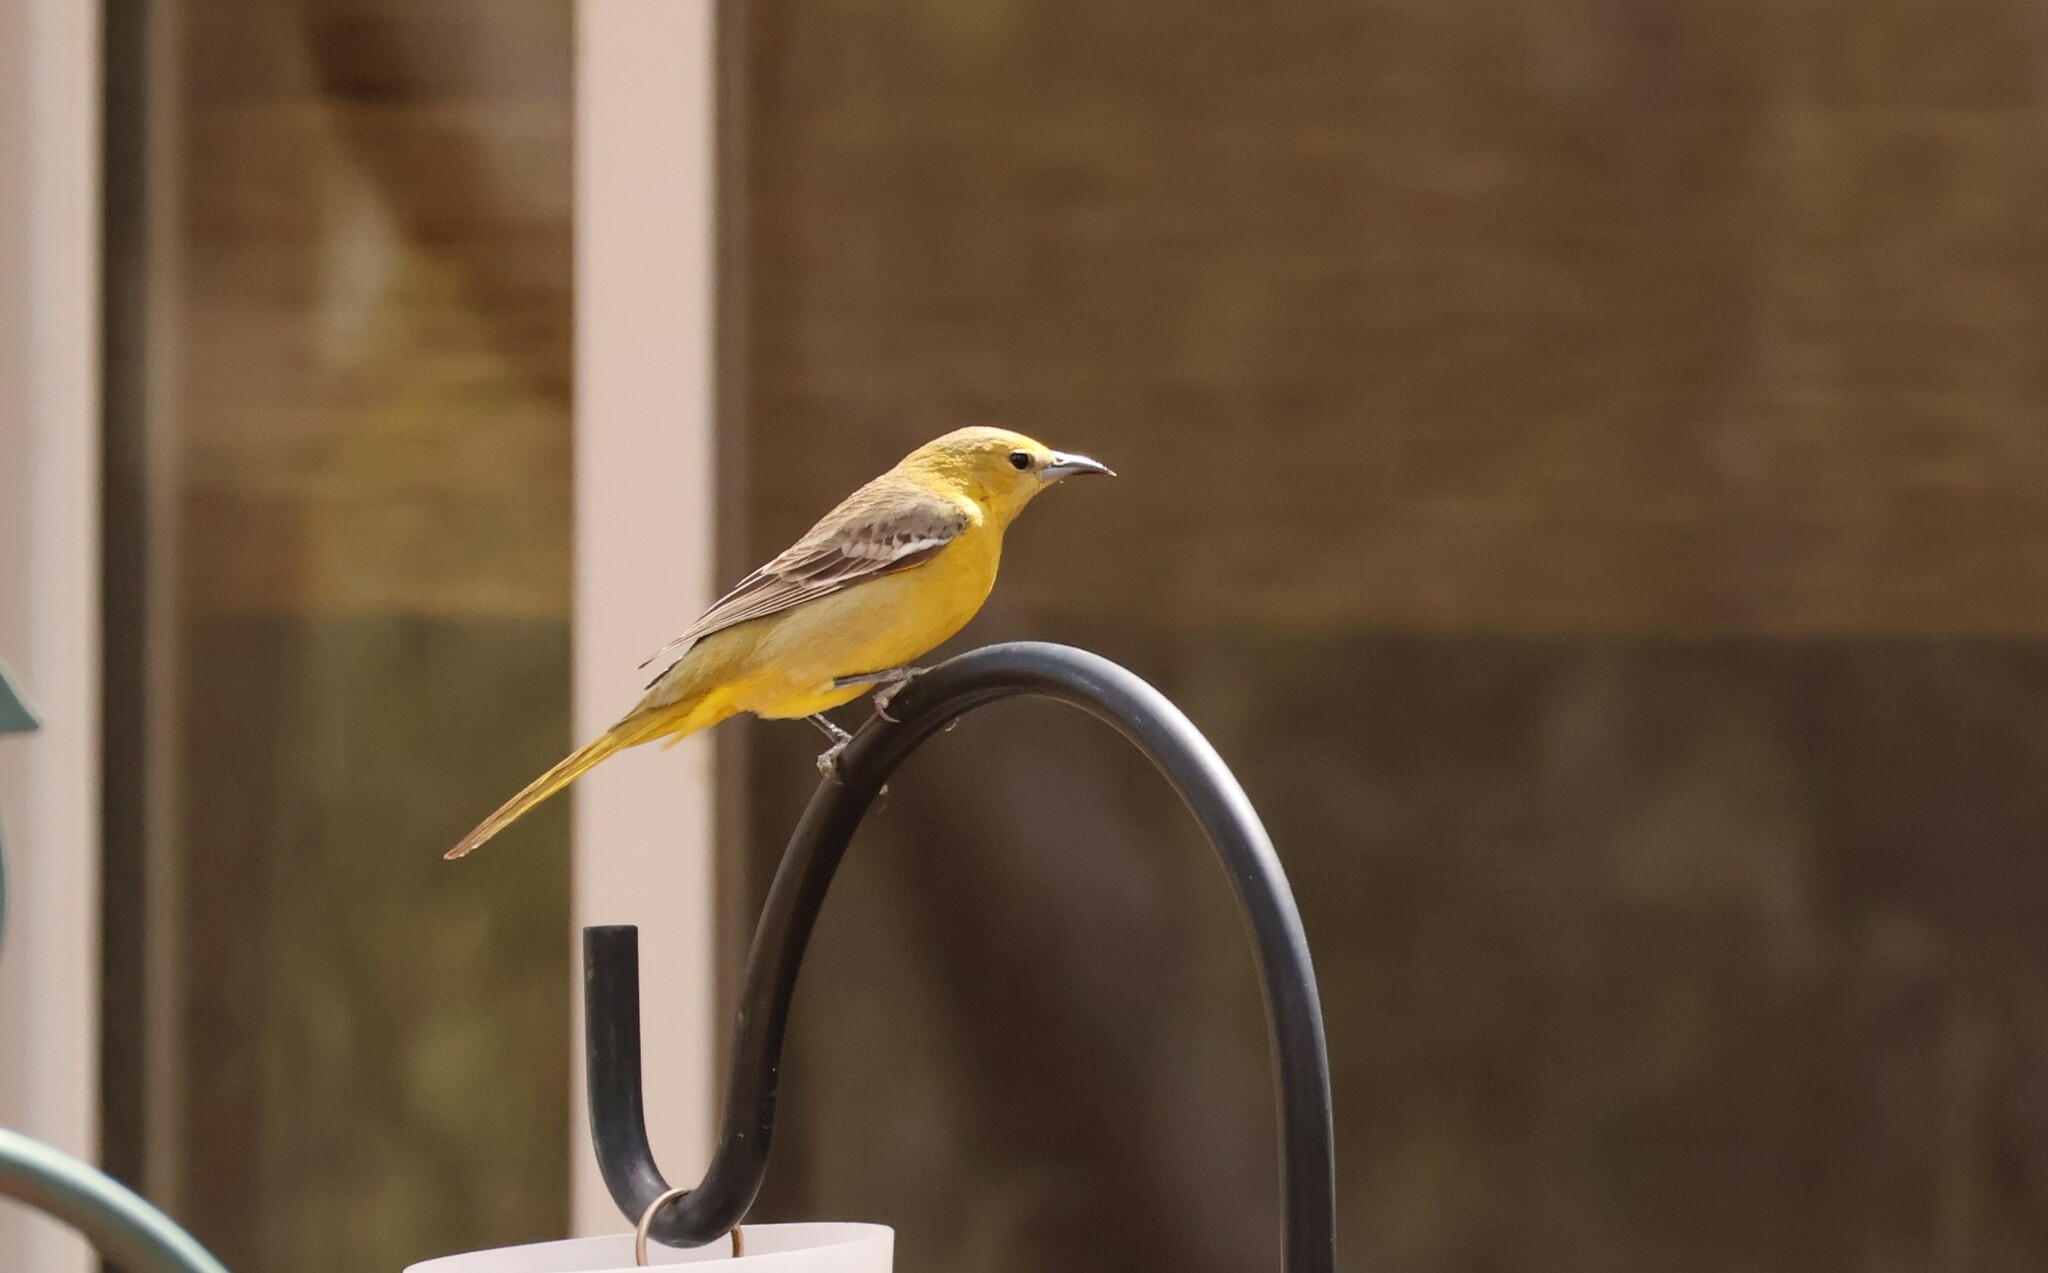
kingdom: Animalia
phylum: Chordata
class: Aves
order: Passeriformes
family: Icteridae
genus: Icterus
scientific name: Icterus cucullatus
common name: Hooded oriole
